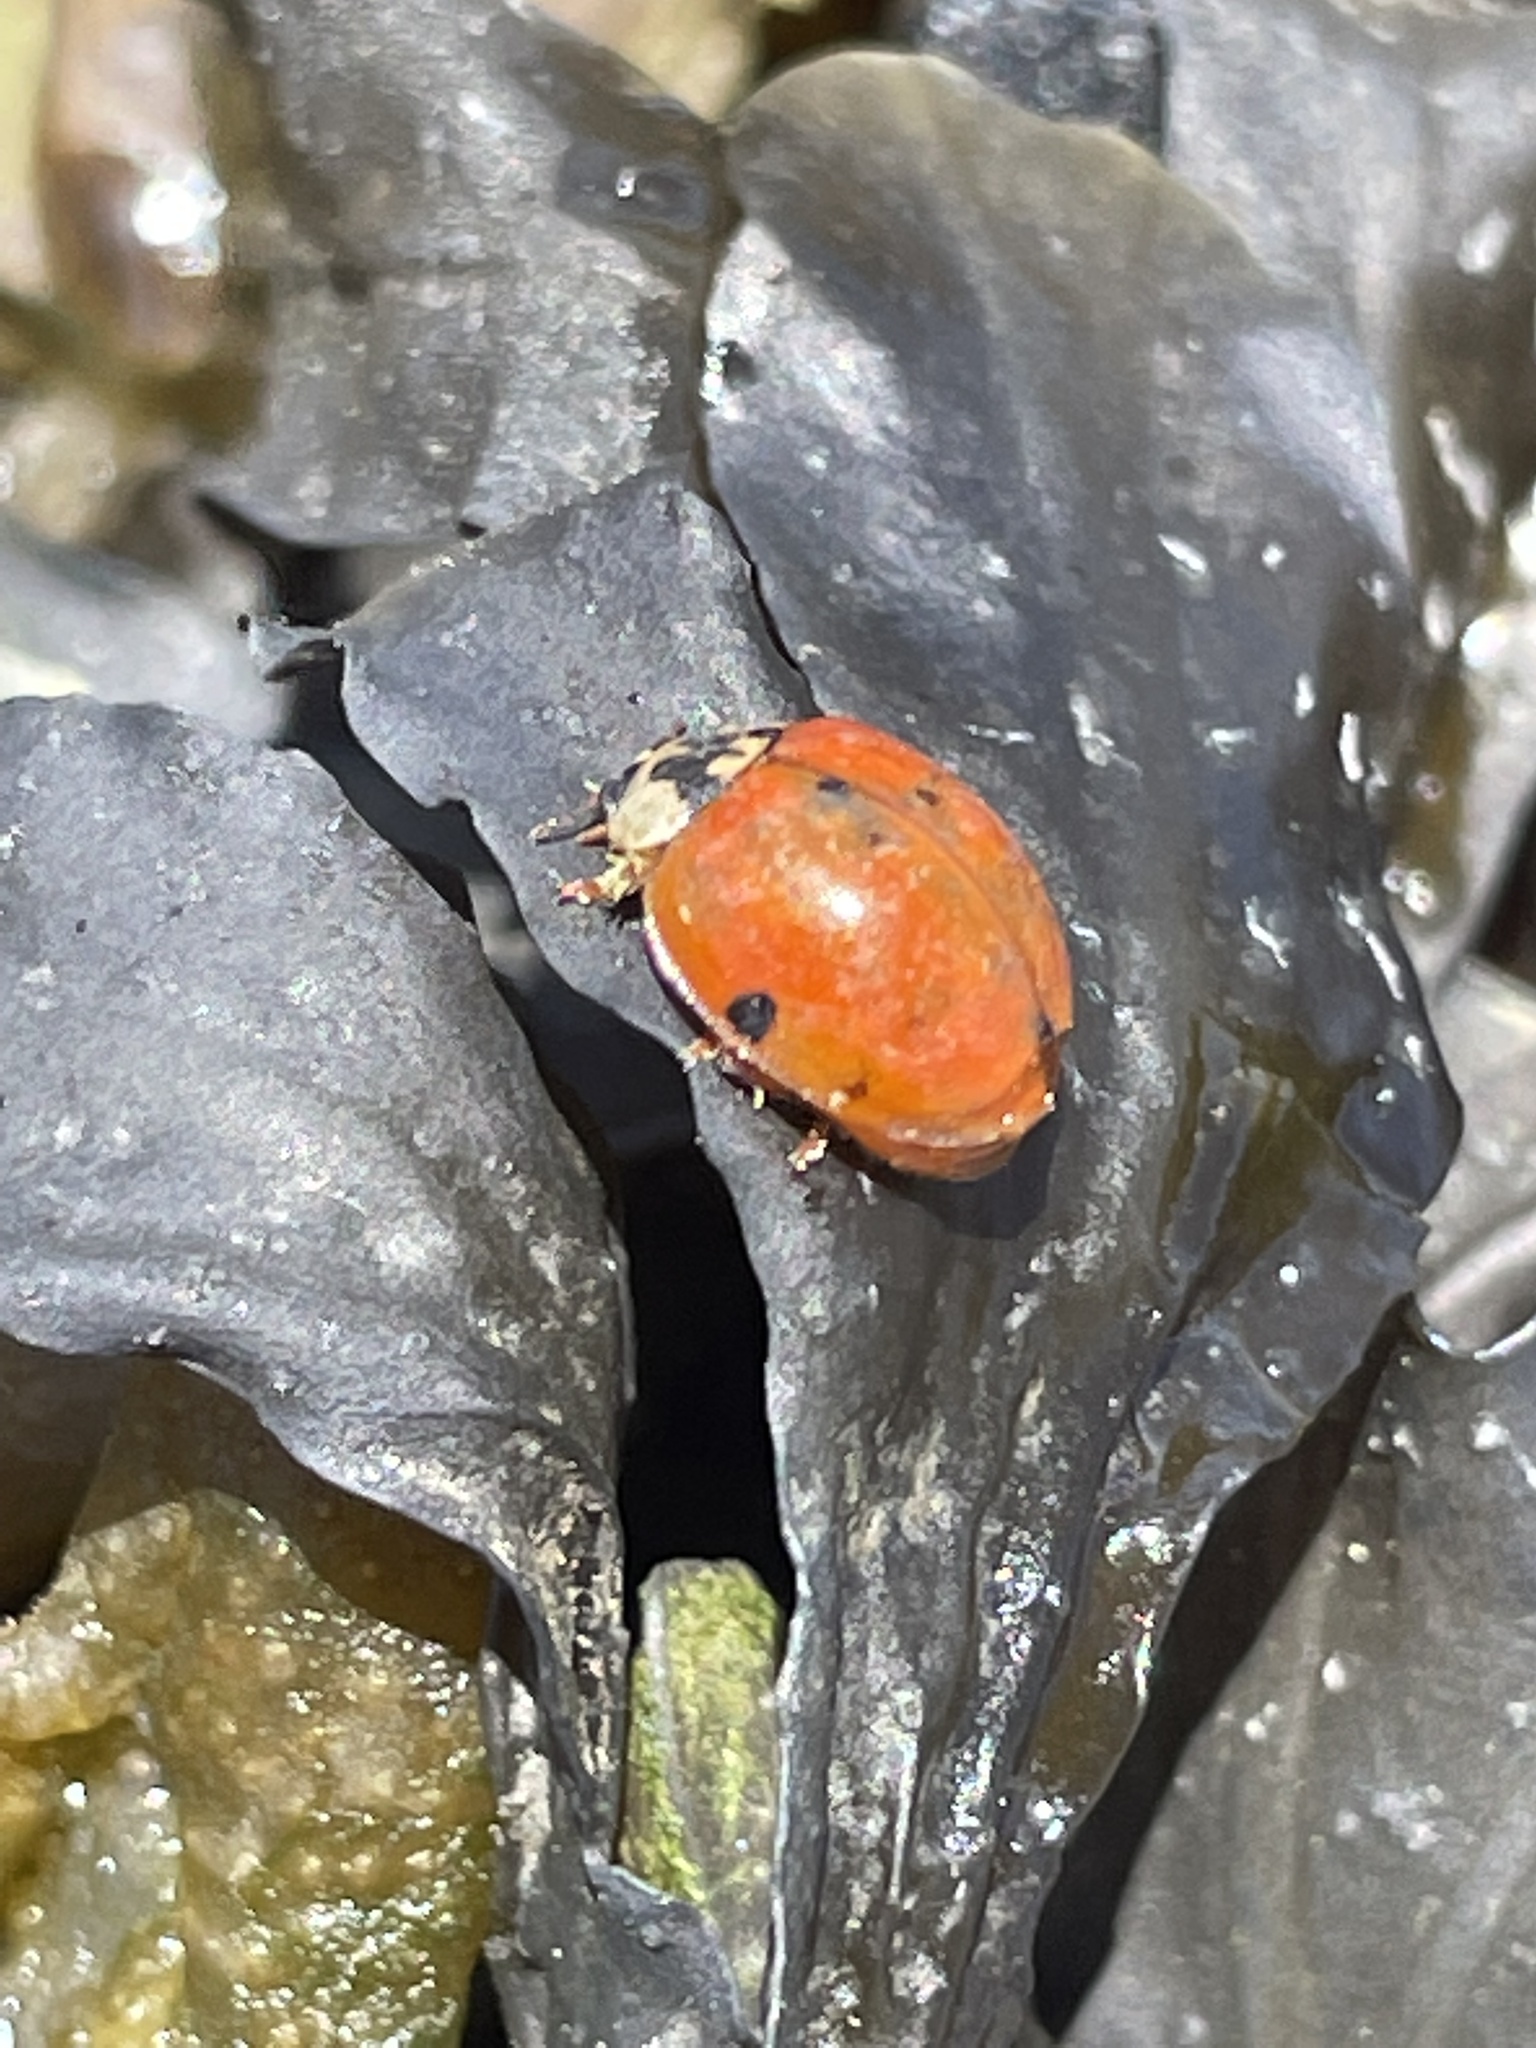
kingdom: Animalia
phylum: Arthropoda
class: Insecta
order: Coleoptera
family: Coccinellidae
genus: Harmonia
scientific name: Harmonia axyridis
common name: Harlequin ladybird
